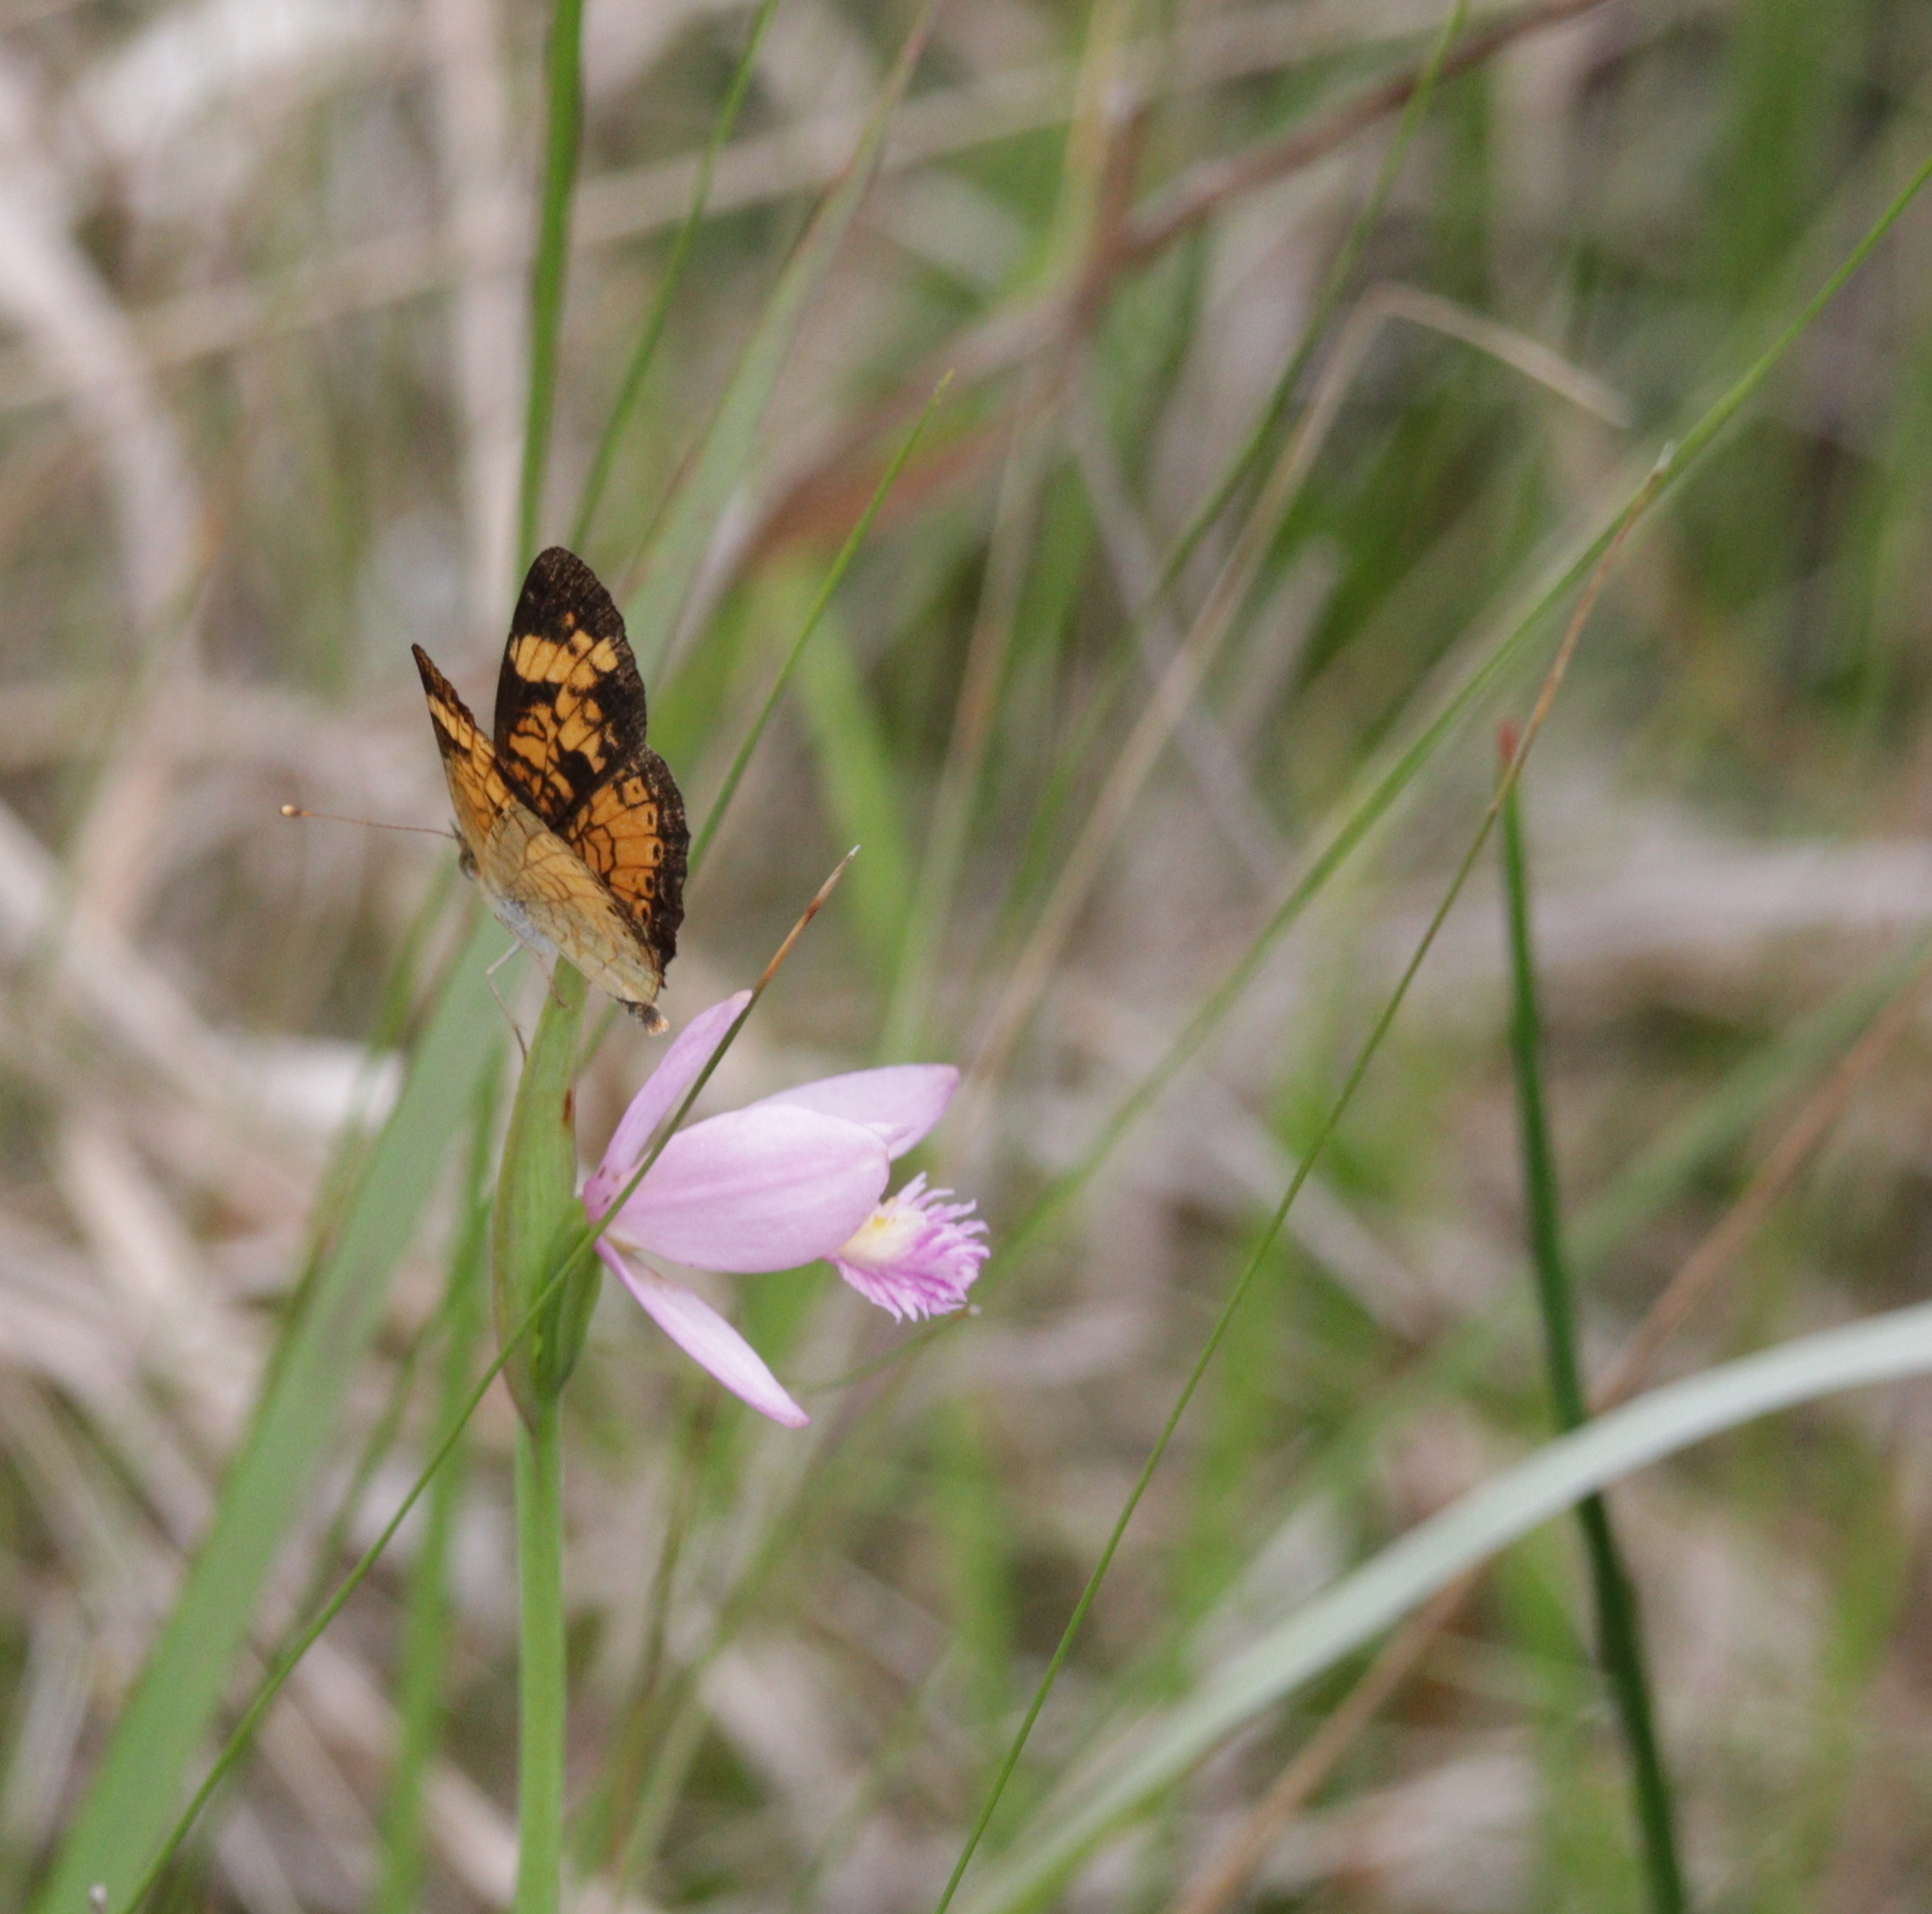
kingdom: Animalia
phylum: Arthropoda
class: Insecta
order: Lepidoptera
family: Nymphalidae
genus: Phyciodes
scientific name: Phyciodes tharos
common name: Pearl crescent
